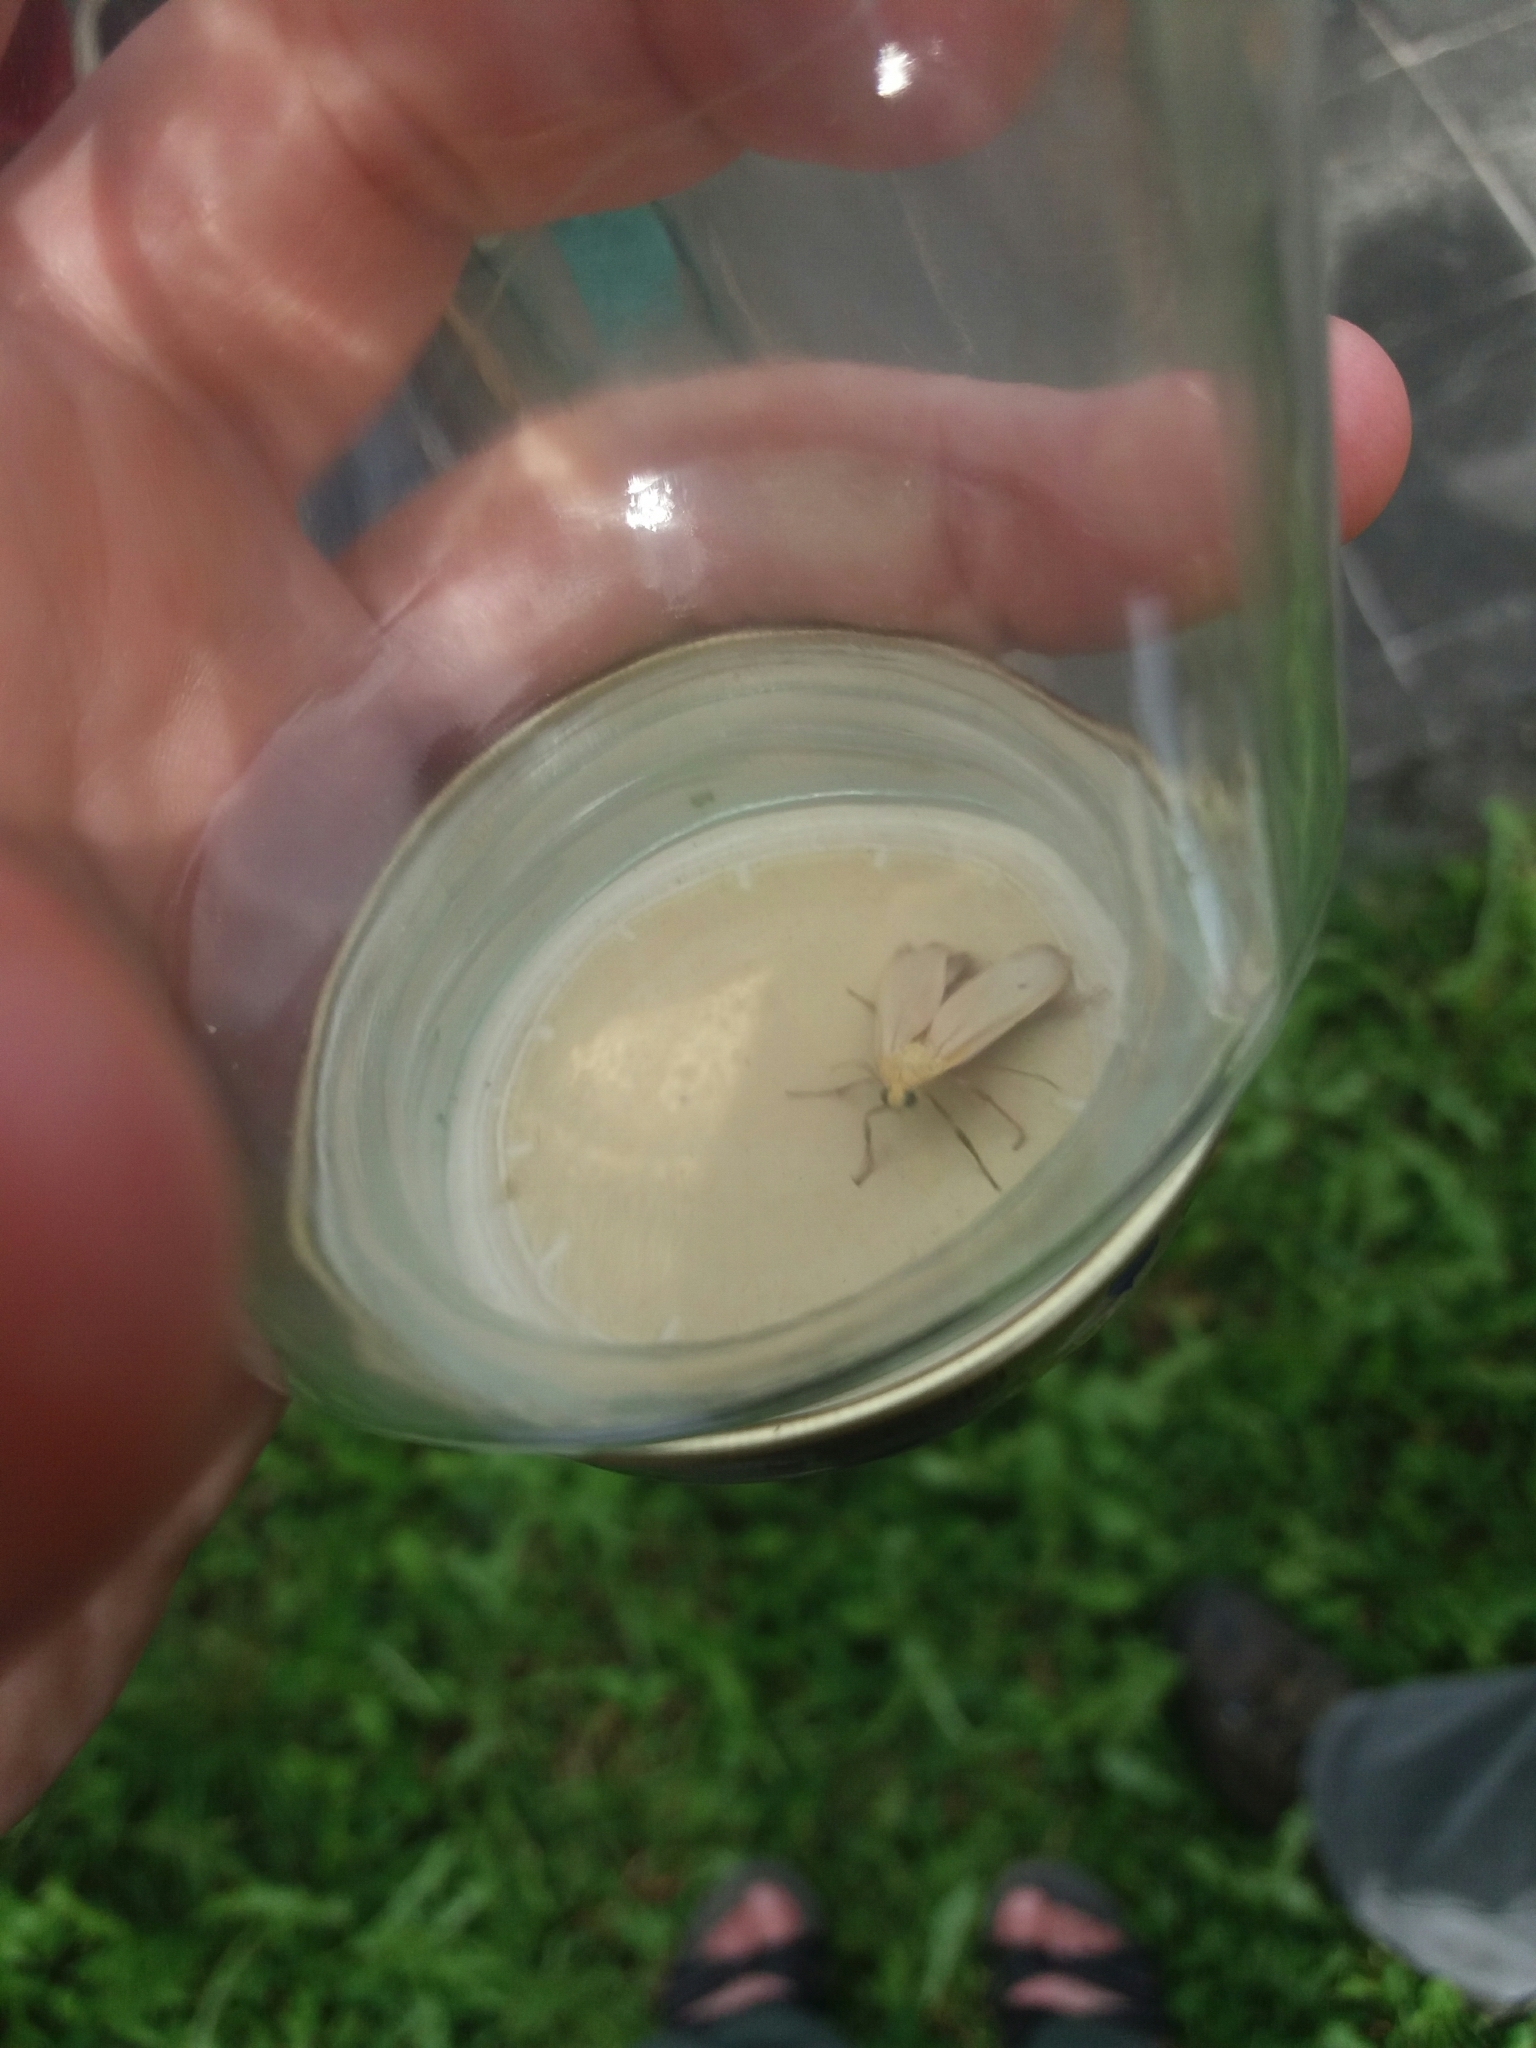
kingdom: Animalia
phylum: Arthropoda
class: Insecta
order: Lepidoptera
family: Erebidae
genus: Katha
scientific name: Katha depressa
